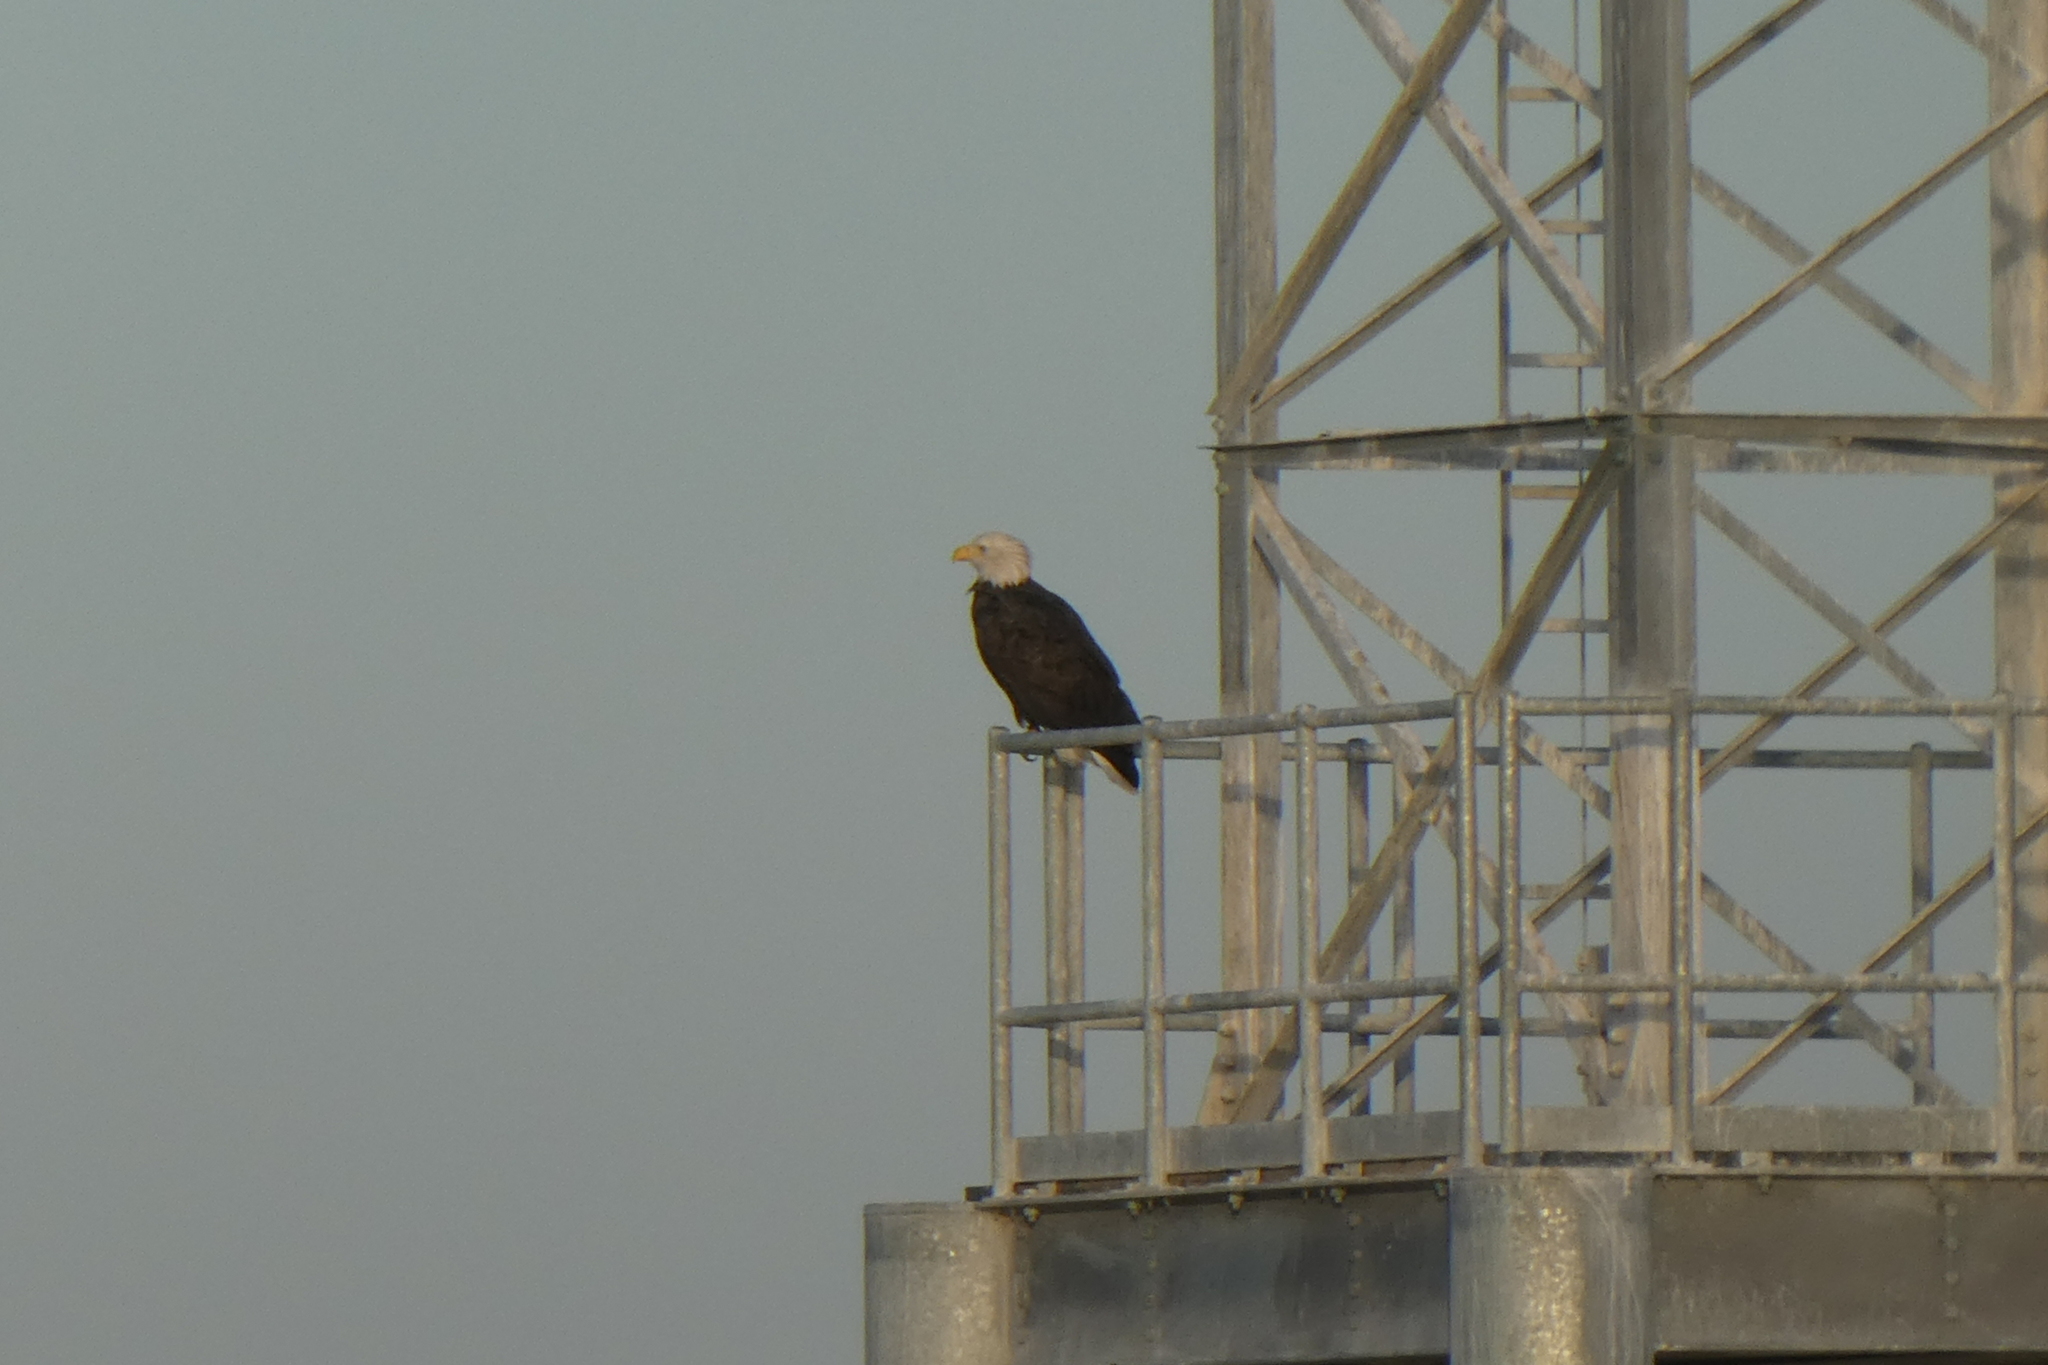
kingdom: Animalia
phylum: Chordata
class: Aves
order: Accipitriformes
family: Accipitridae
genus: Haliaeetus
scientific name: Haliaeetus leucocephalus
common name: Bald eagle
